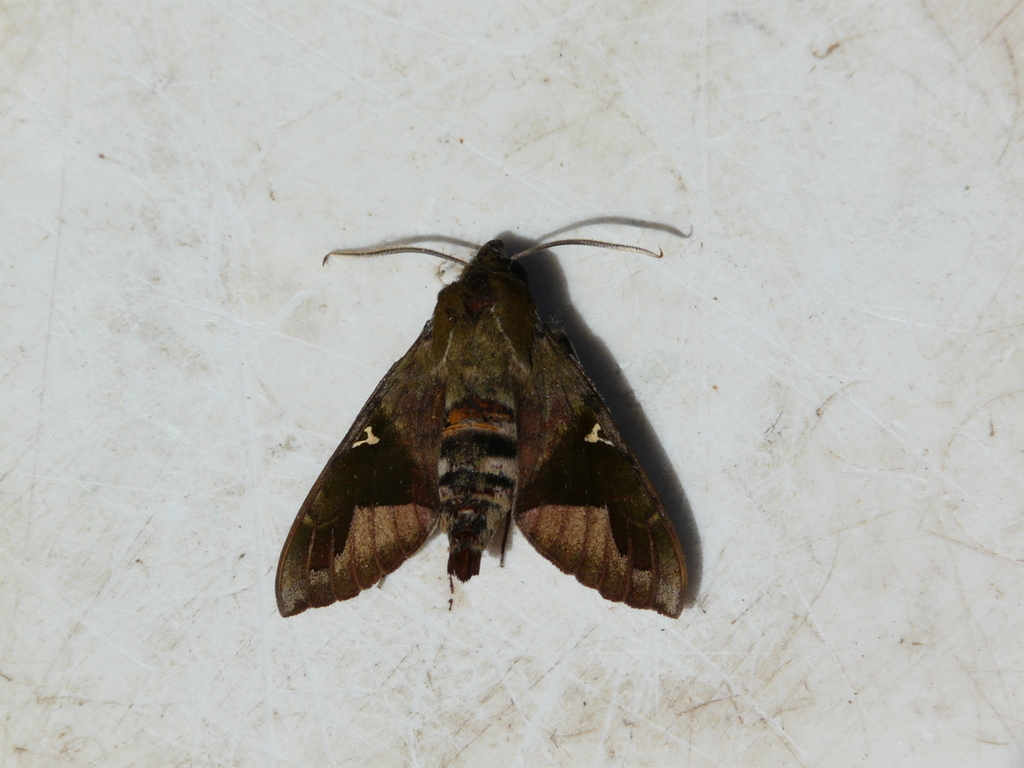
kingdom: Animalia
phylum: Arthropoda
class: Insecta
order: Lepidoptera
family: Sphingidae
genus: Nephele
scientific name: Nephele vau
